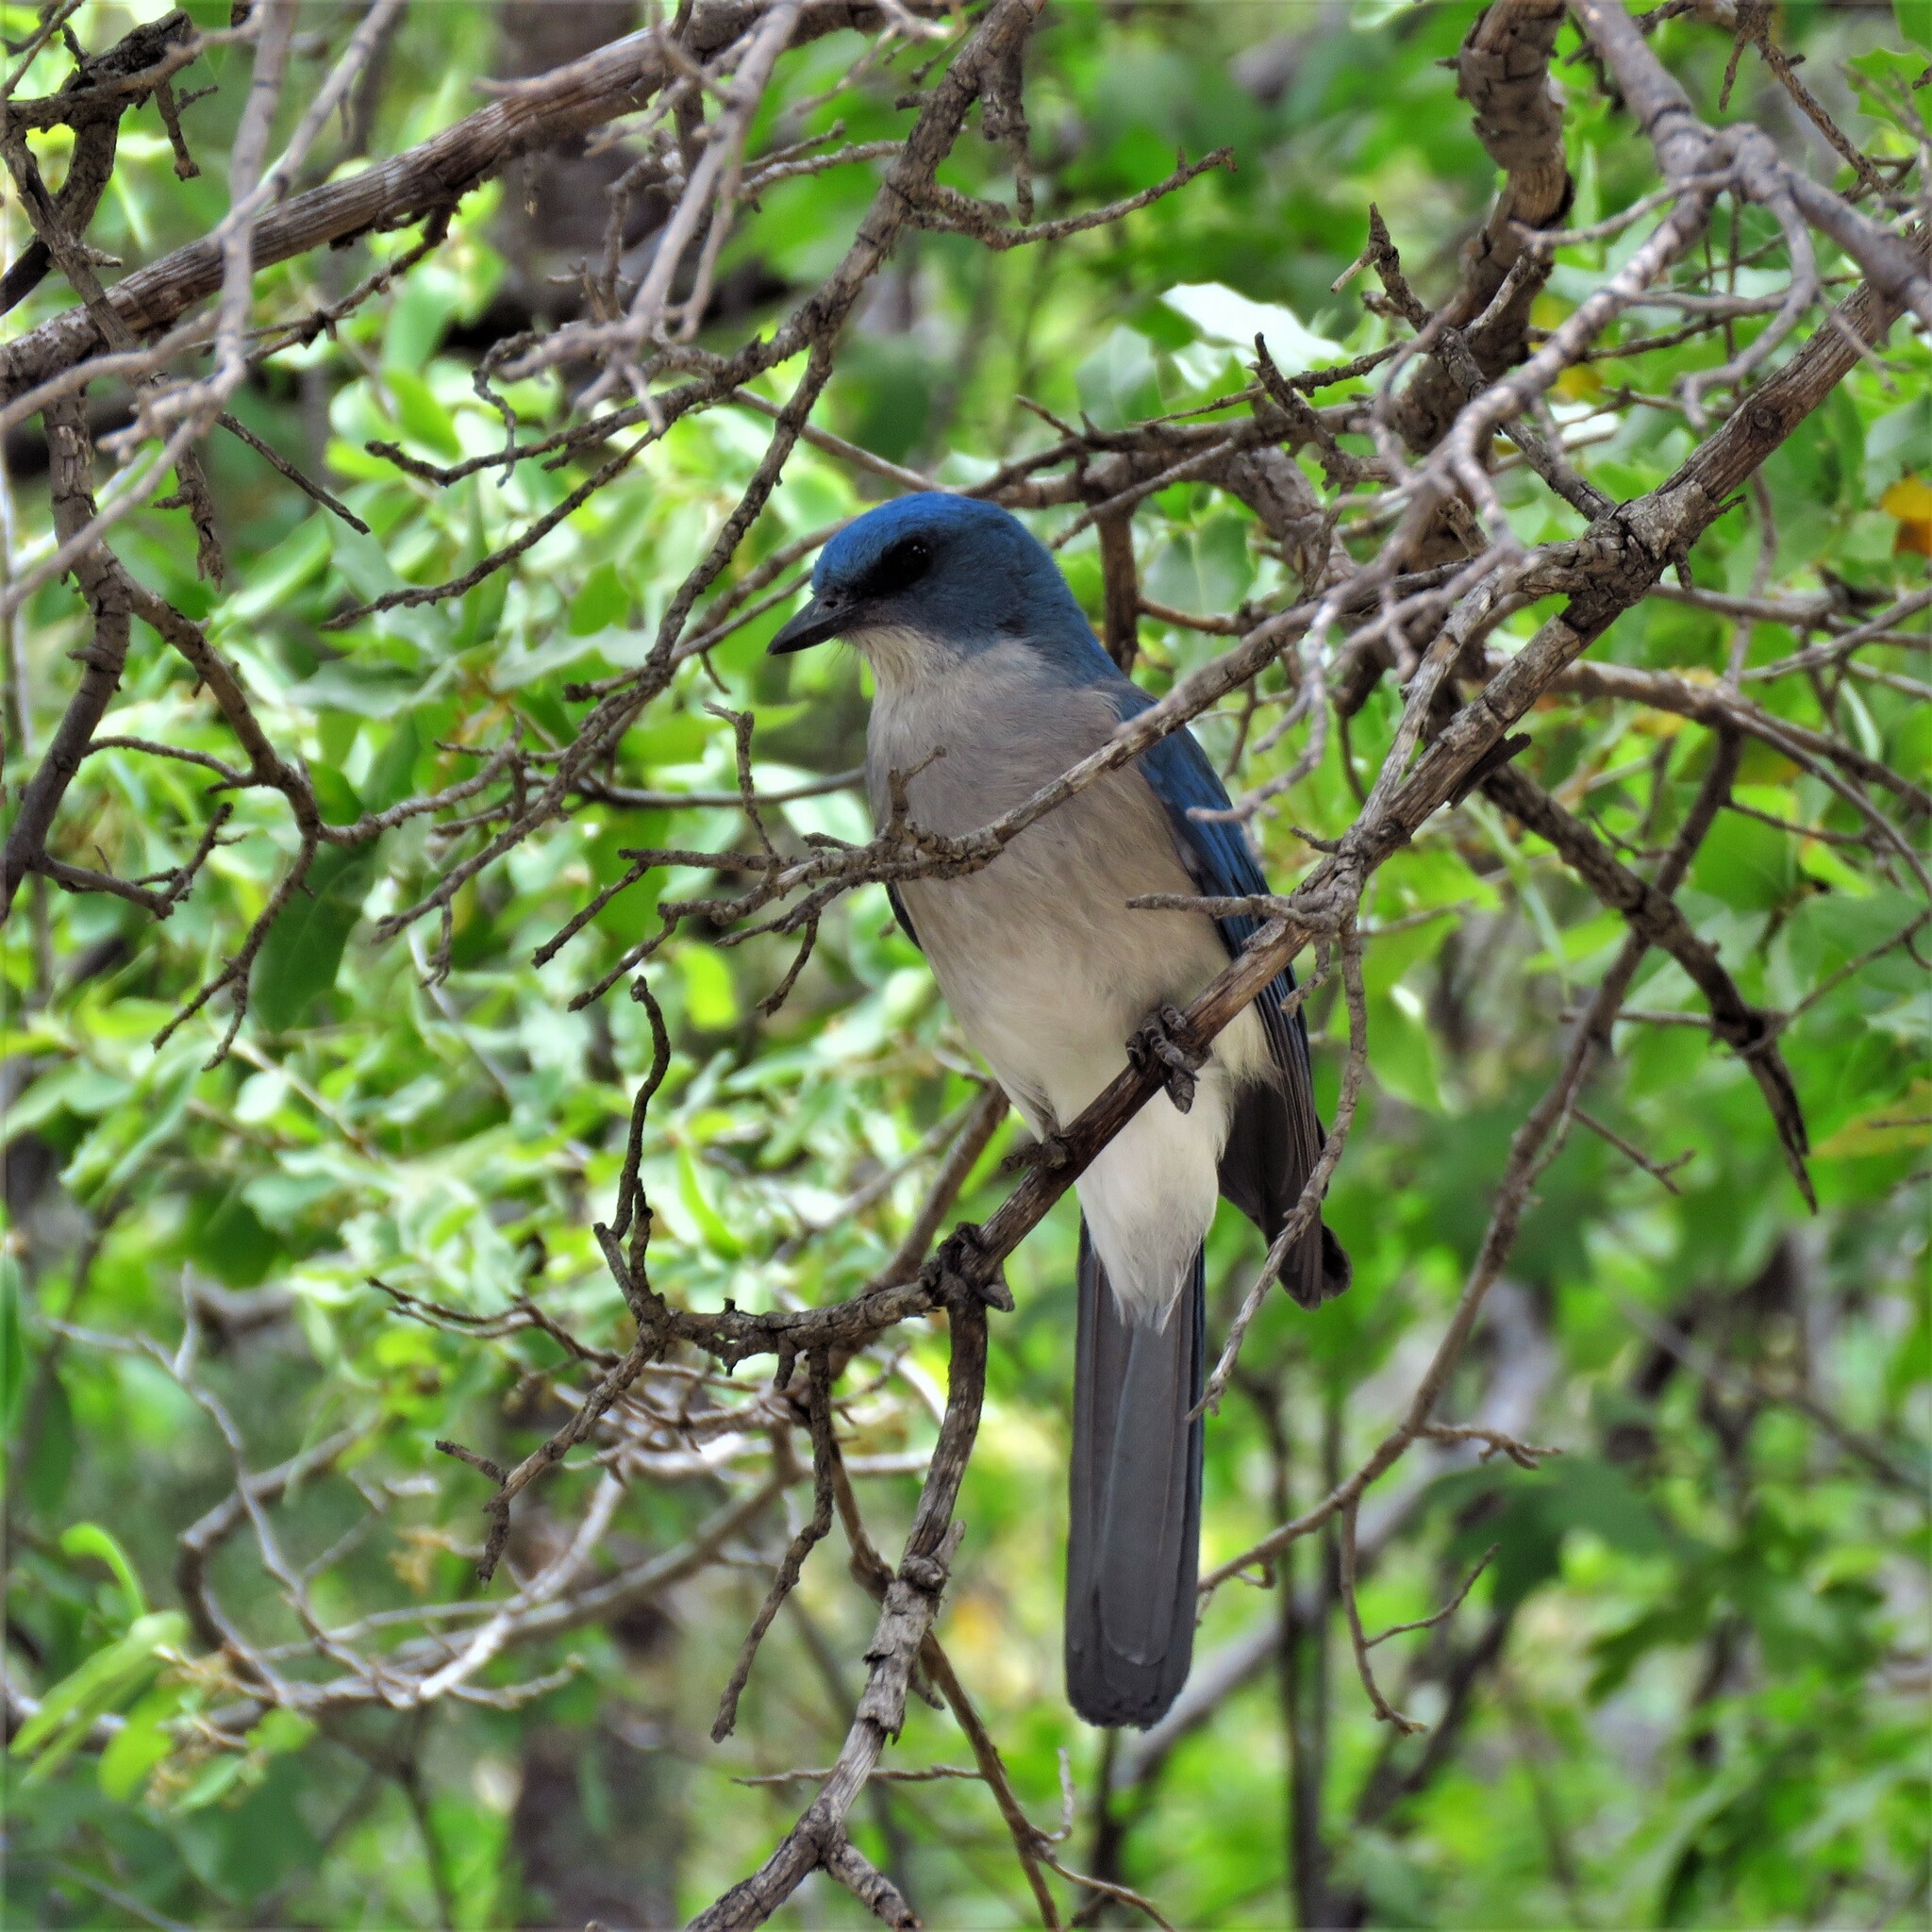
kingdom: Animalia
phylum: Chordata
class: Aves
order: Passeriformes
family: Corvidae
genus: Aphelocoma
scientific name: Aphelocoma wollweberi
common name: Mexican jay
